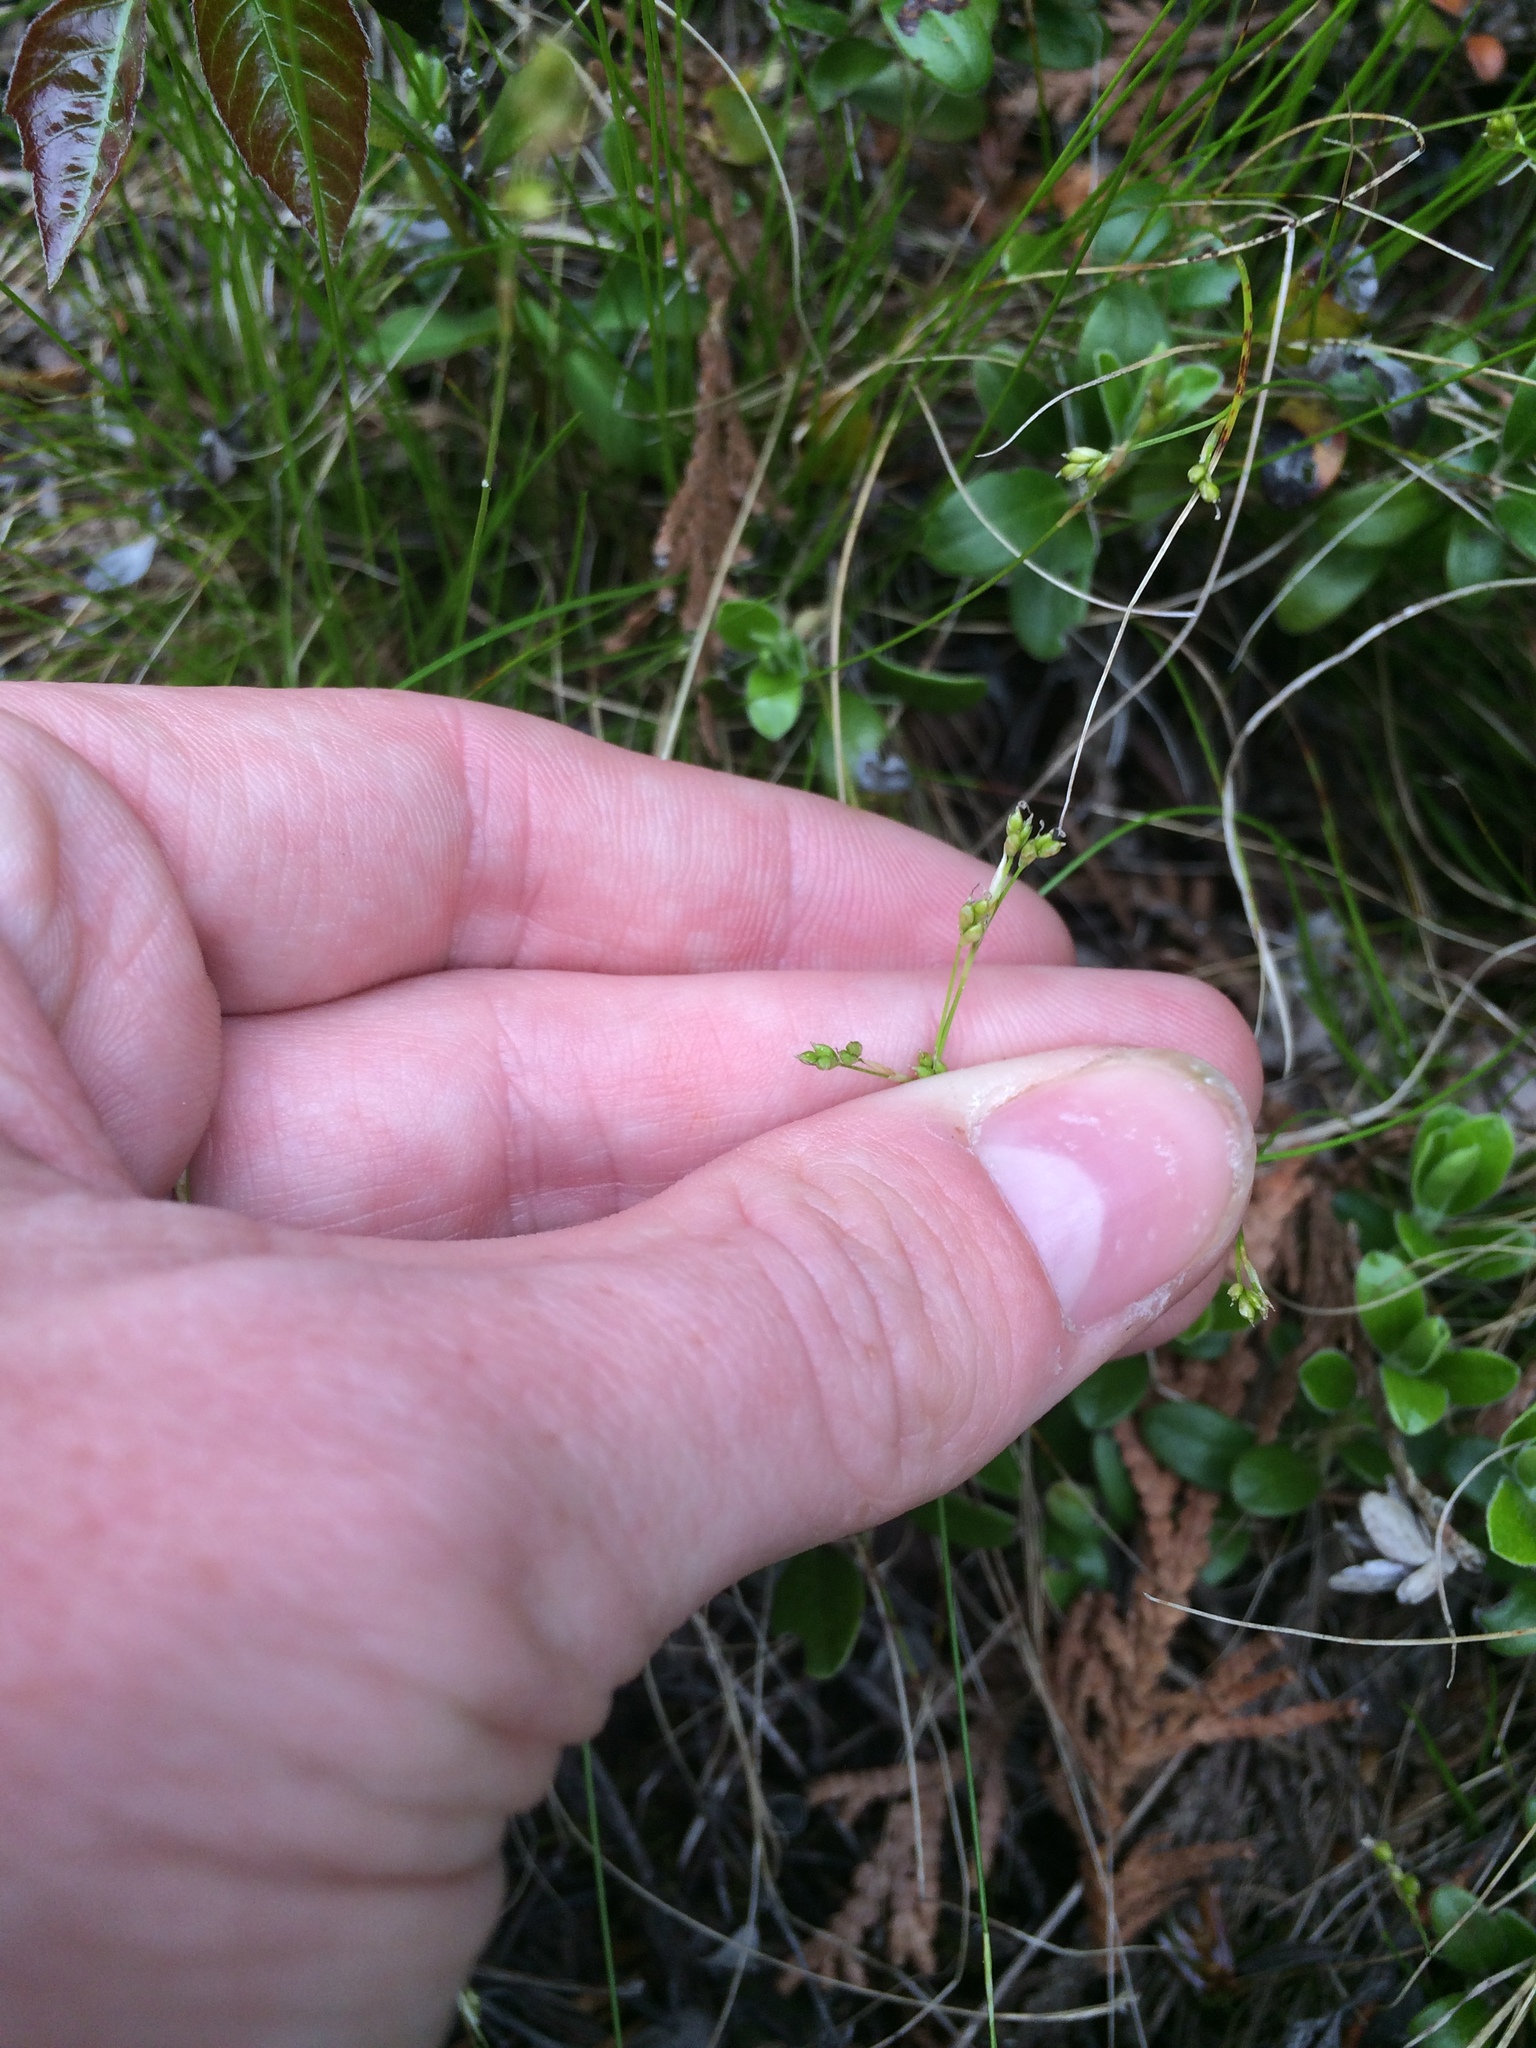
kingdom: Plantae
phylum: Tracheophyta
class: Liliopsida
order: Poales
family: Cyperaceae
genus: Carex
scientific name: Carex eburnea
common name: Bristle-leaved sedge
